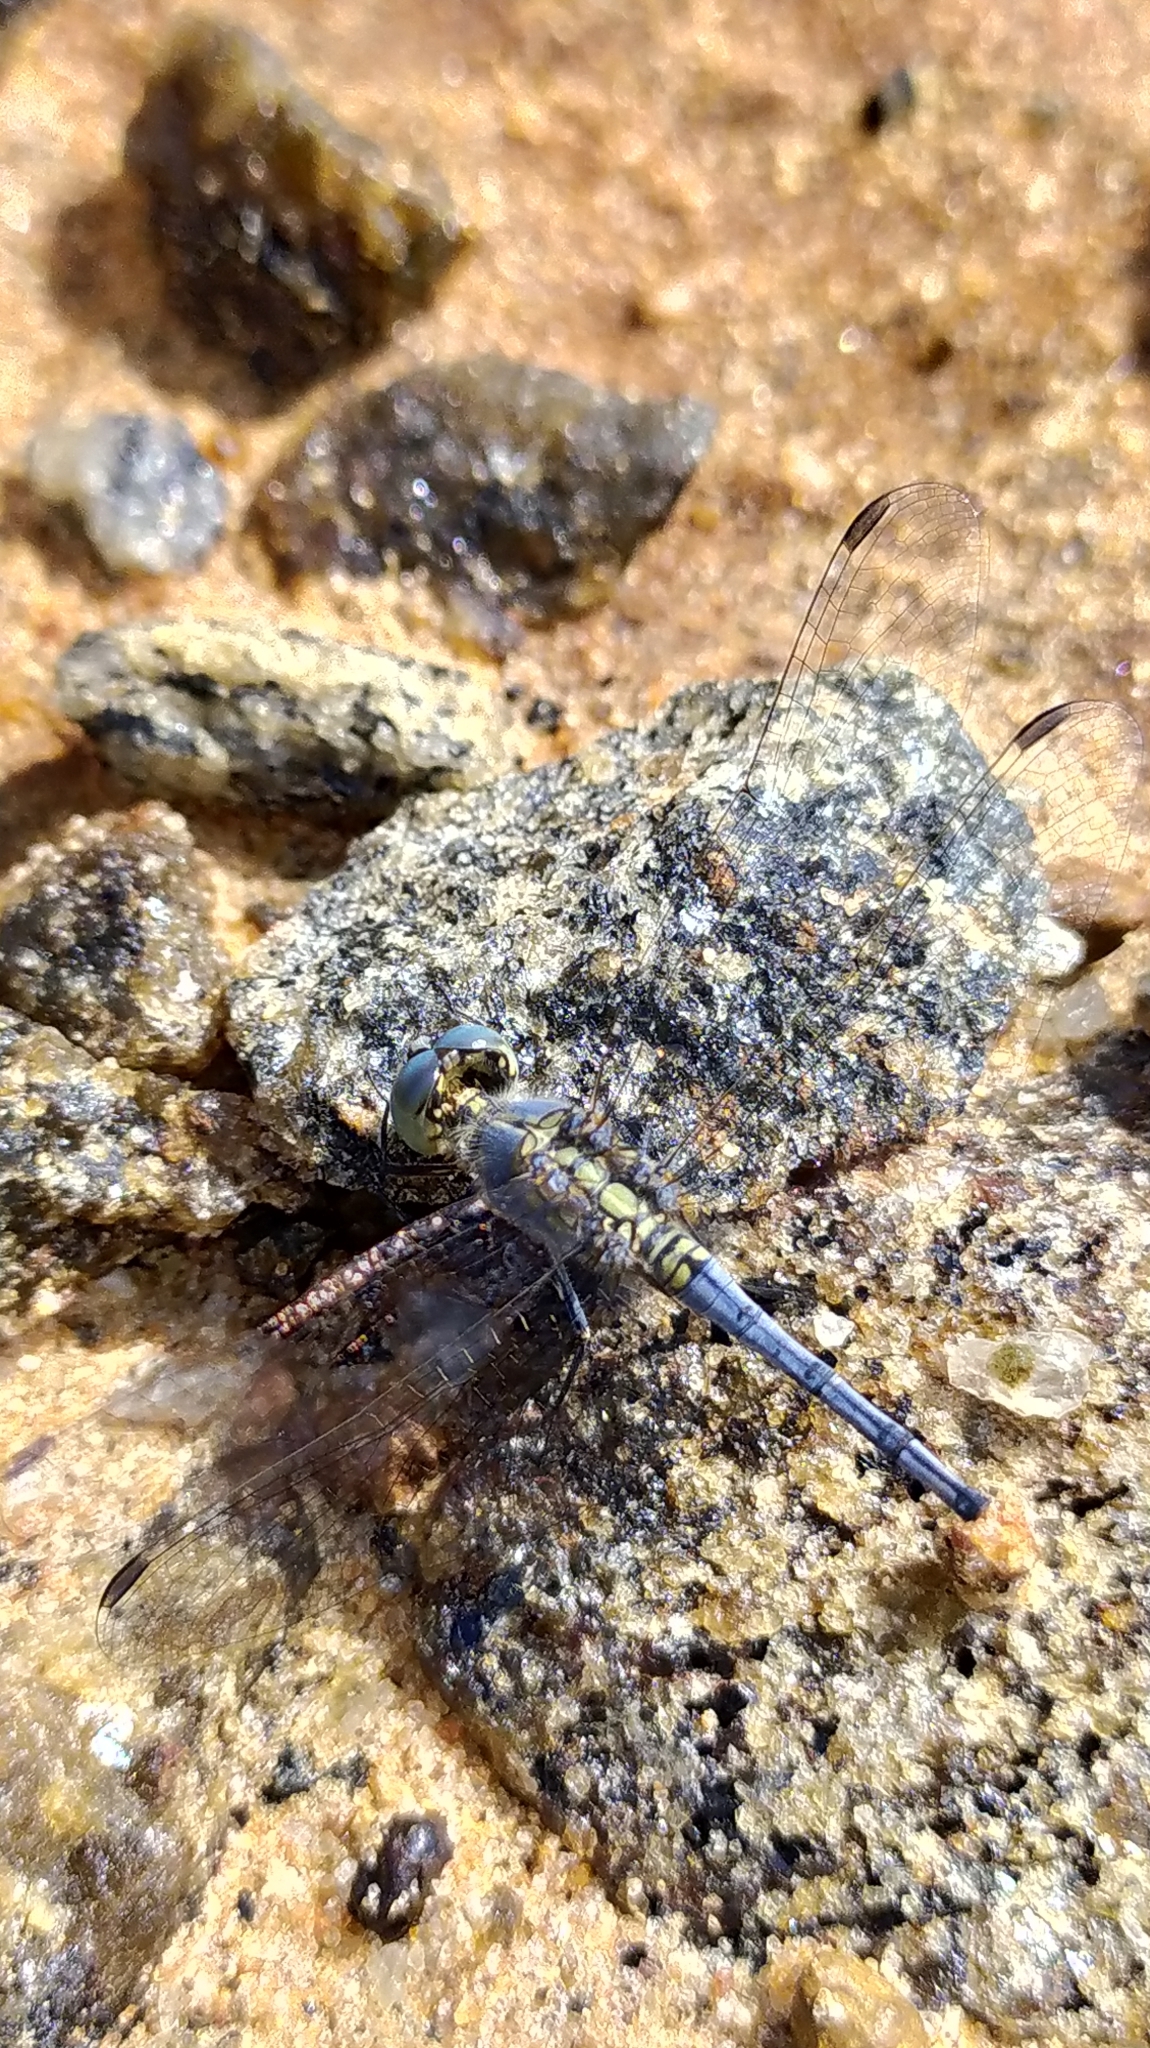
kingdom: Animalia
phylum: Arthropoda
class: Insecta
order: Odonata
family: Libellulidae
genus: Diplacodes
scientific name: Diplacodes trivialis
